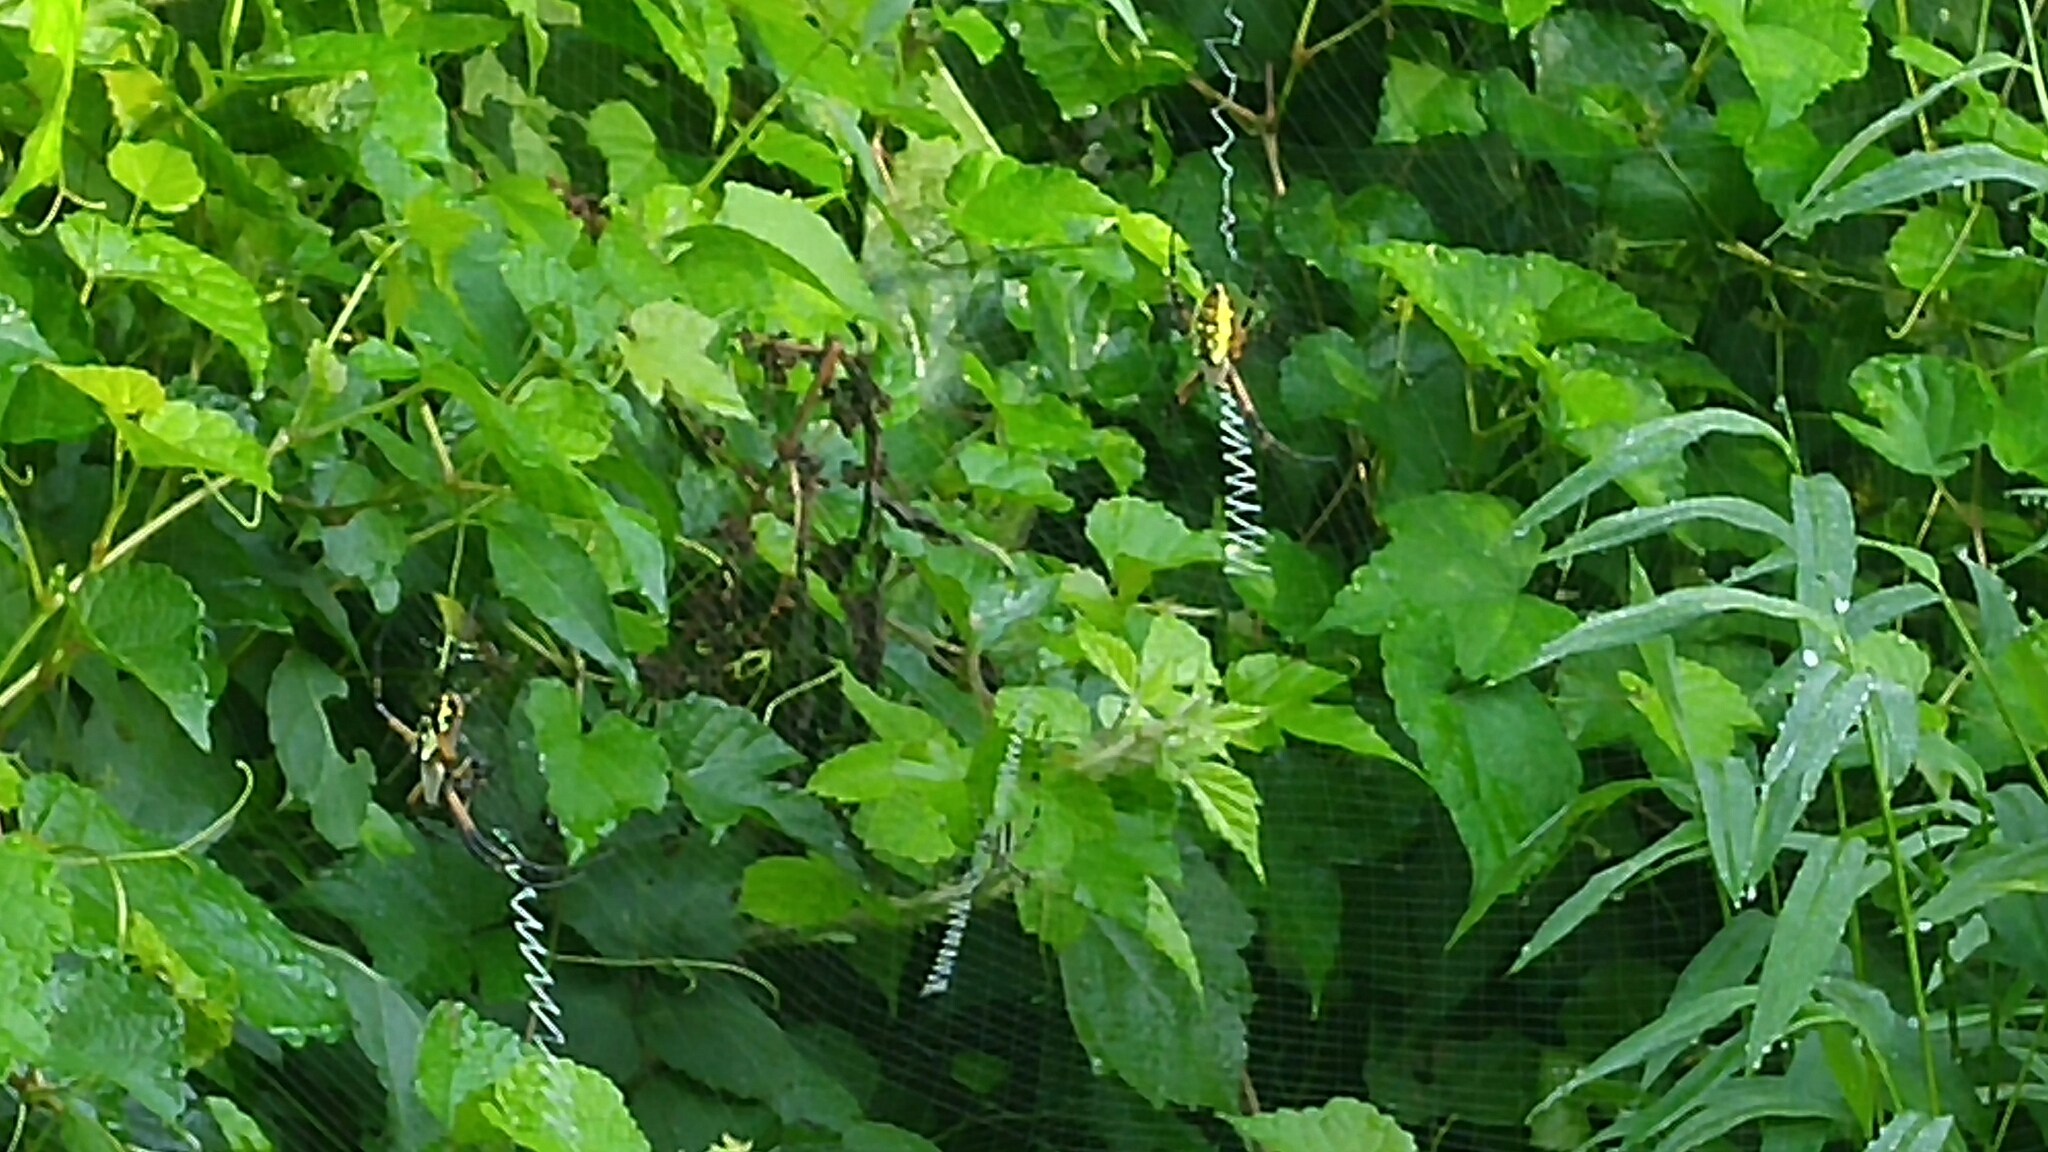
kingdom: Animalia
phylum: Arthropoda
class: Arachnida
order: Araneae
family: Araneidae
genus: Argiope
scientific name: Argiope aurantia
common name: Orb weavers
